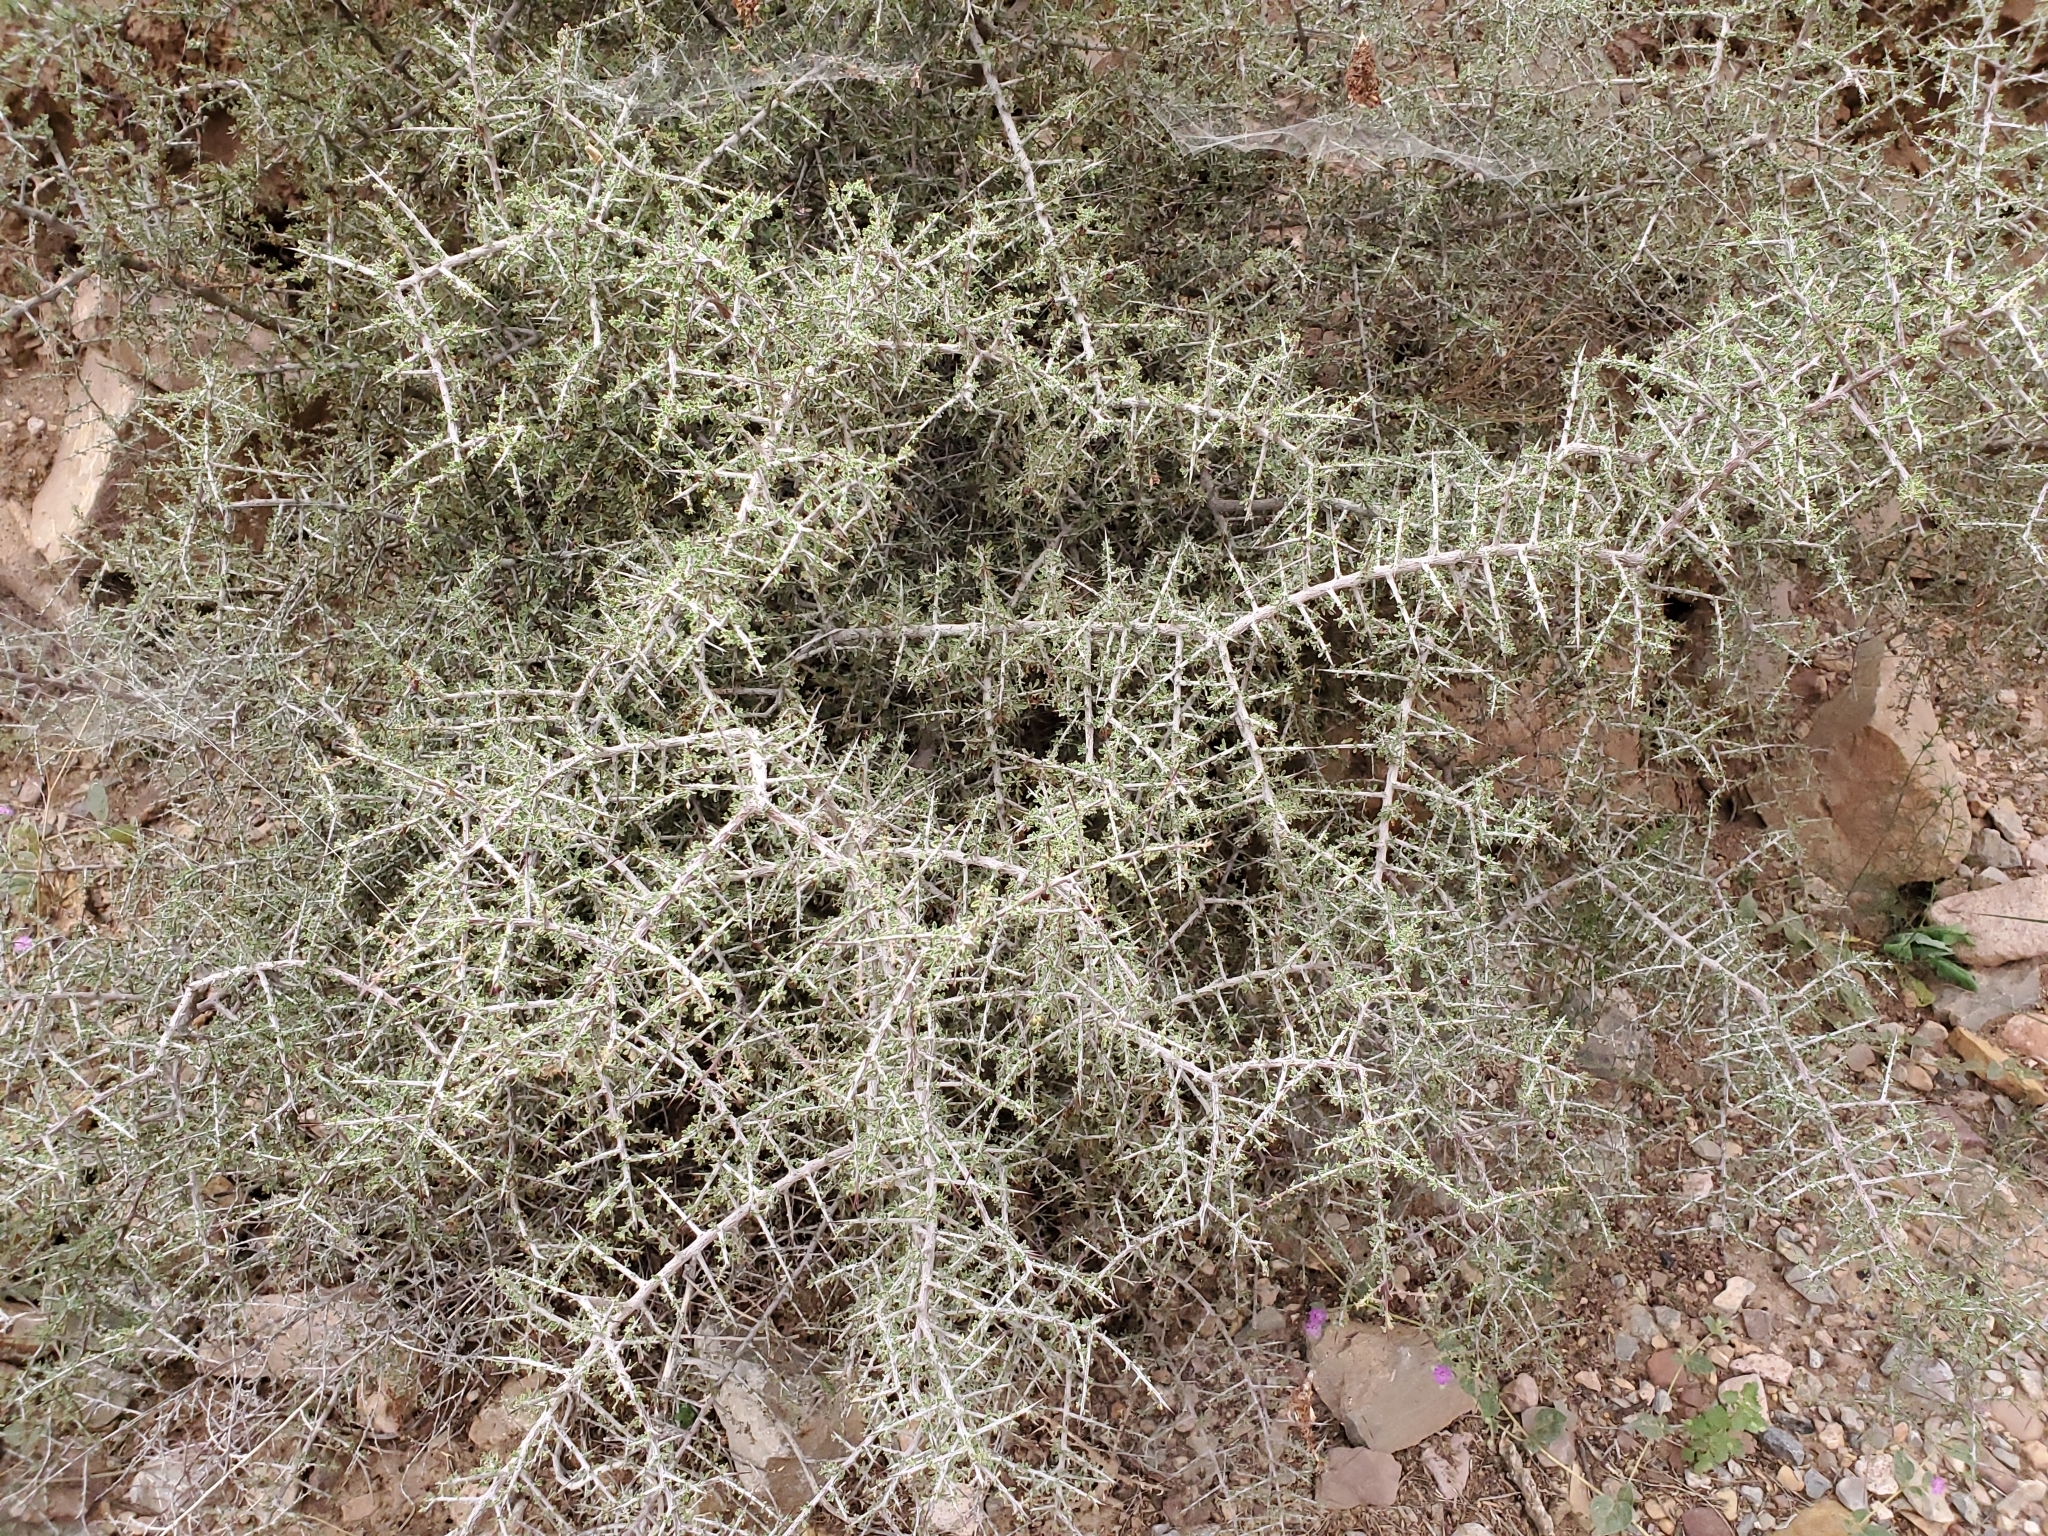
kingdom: Plantae
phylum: Tracheophyta
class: Magnoliopsida
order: Rosales
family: Rhamnaceae
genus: Condalia
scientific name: Condalia warnockii
